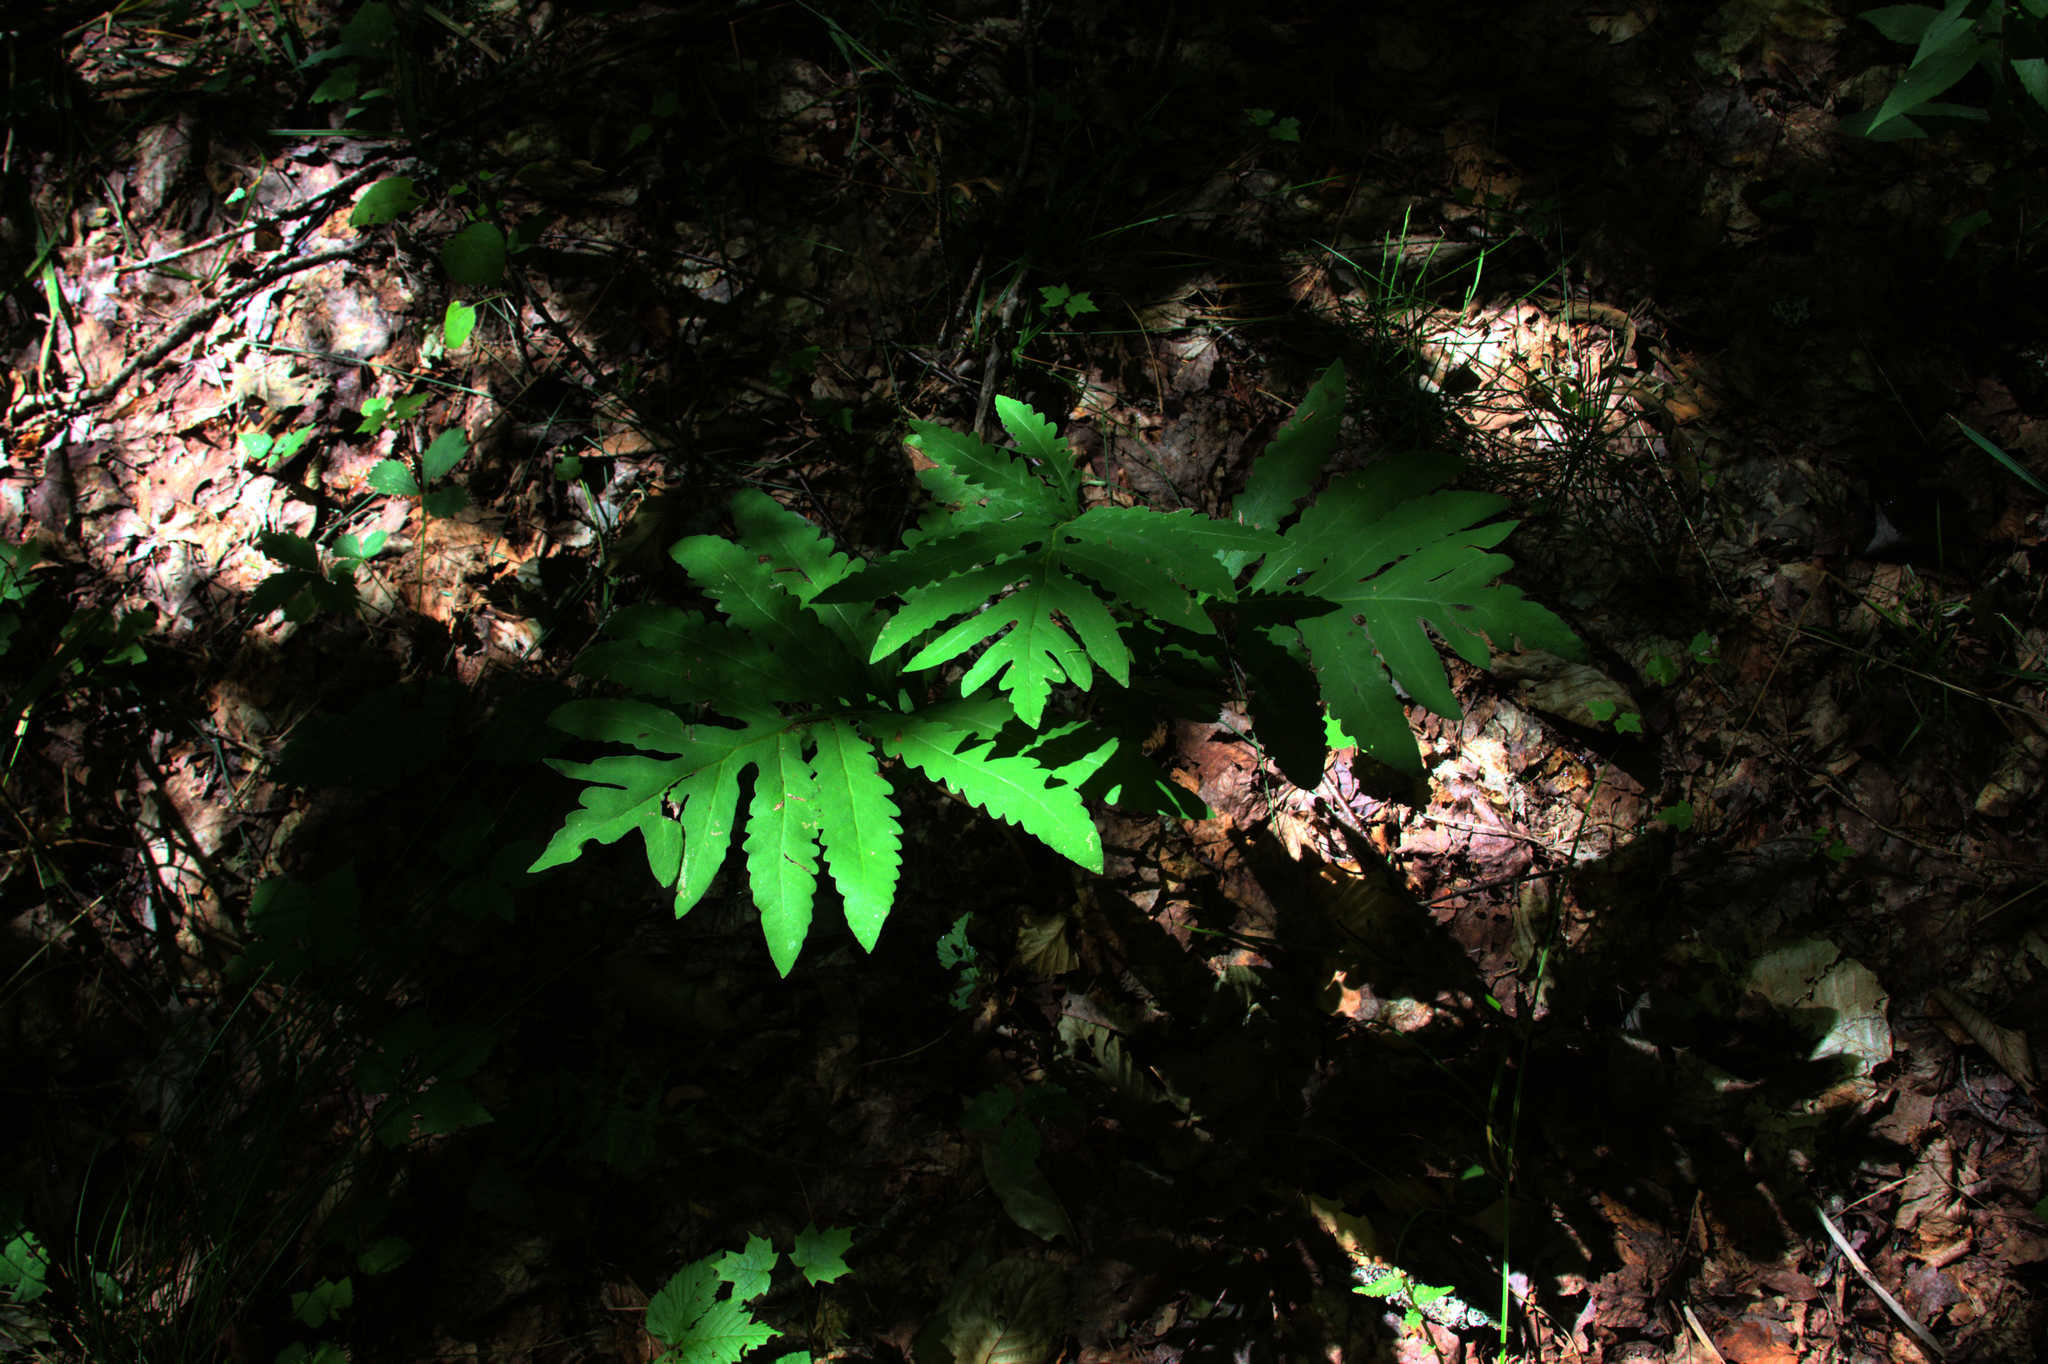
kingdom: Plantae
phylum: Tracheophyta
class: Polypodiopsida
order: Polypodiales
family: Onocleaceae
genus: Onoclea
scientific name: Onoclea sensibilis
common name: Sensitive fern
